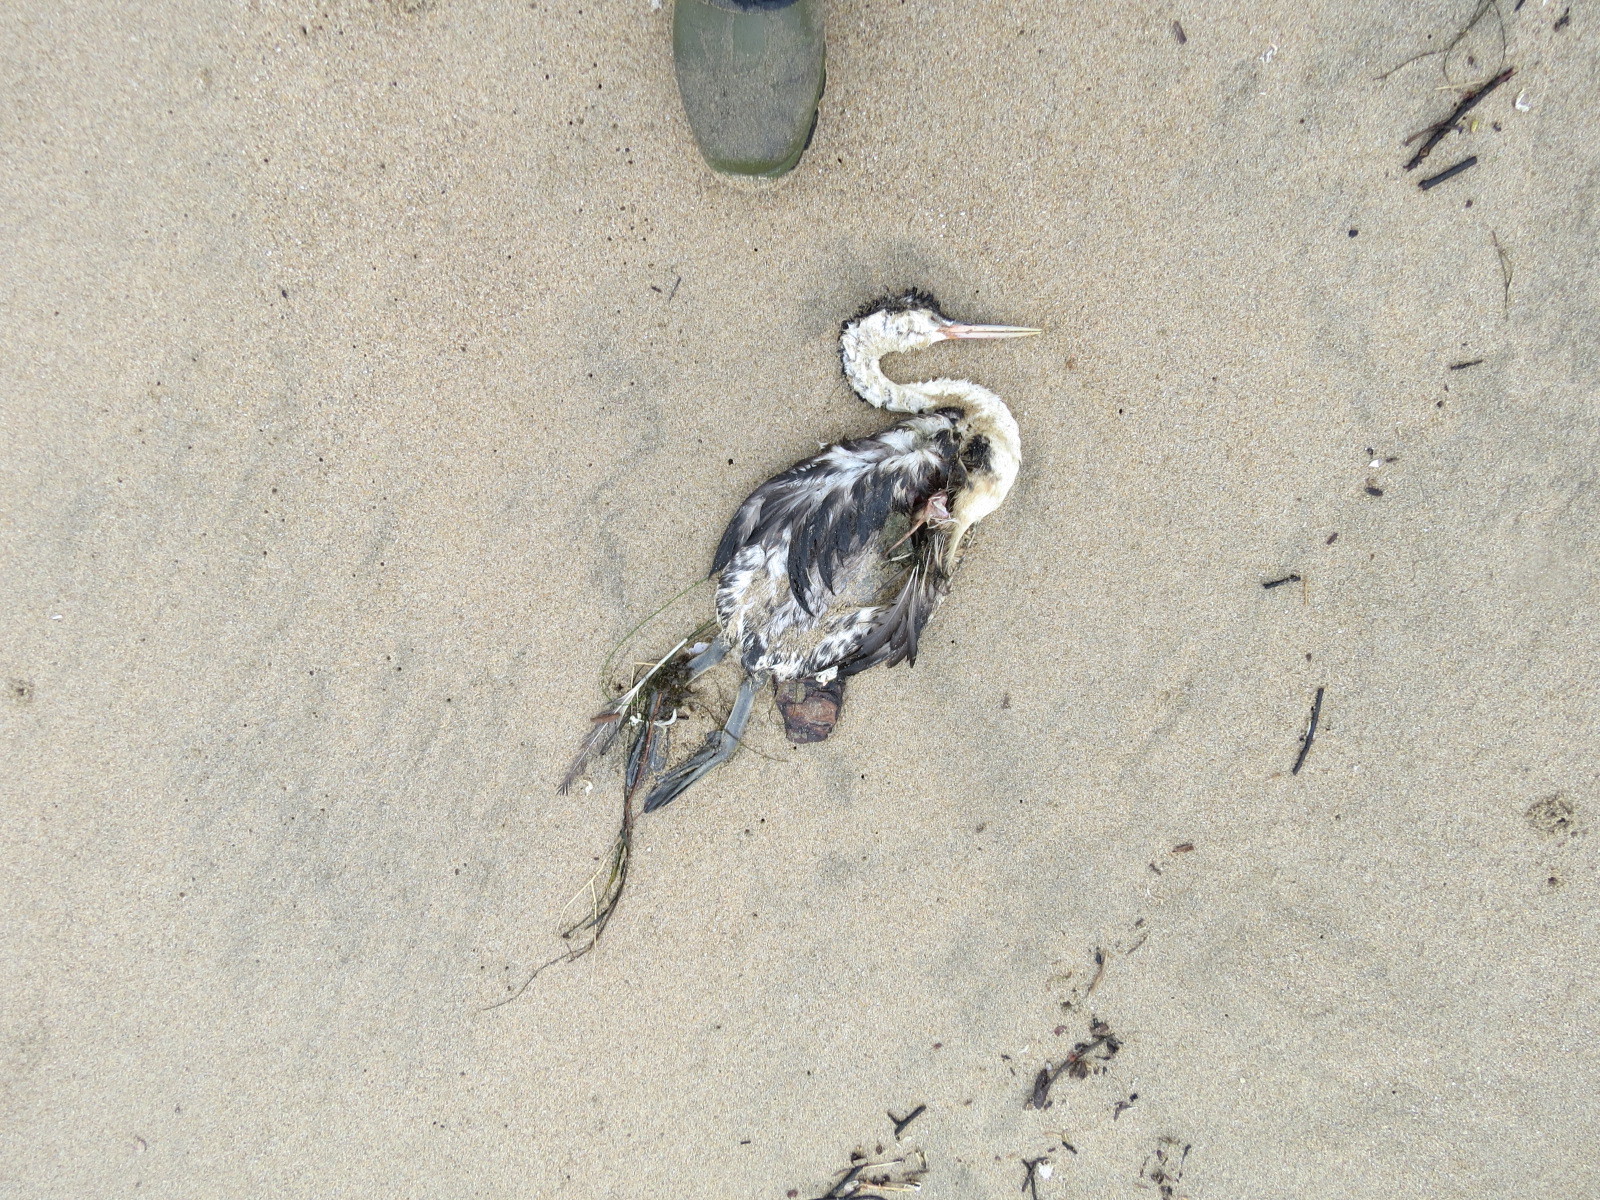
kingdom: Animalia
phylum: Chordata
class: Aves
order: Podicipediformes
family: Podicipedidae
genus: Aechmophorus
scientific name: Aechmophorus clarkii
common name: Clark's grebe
